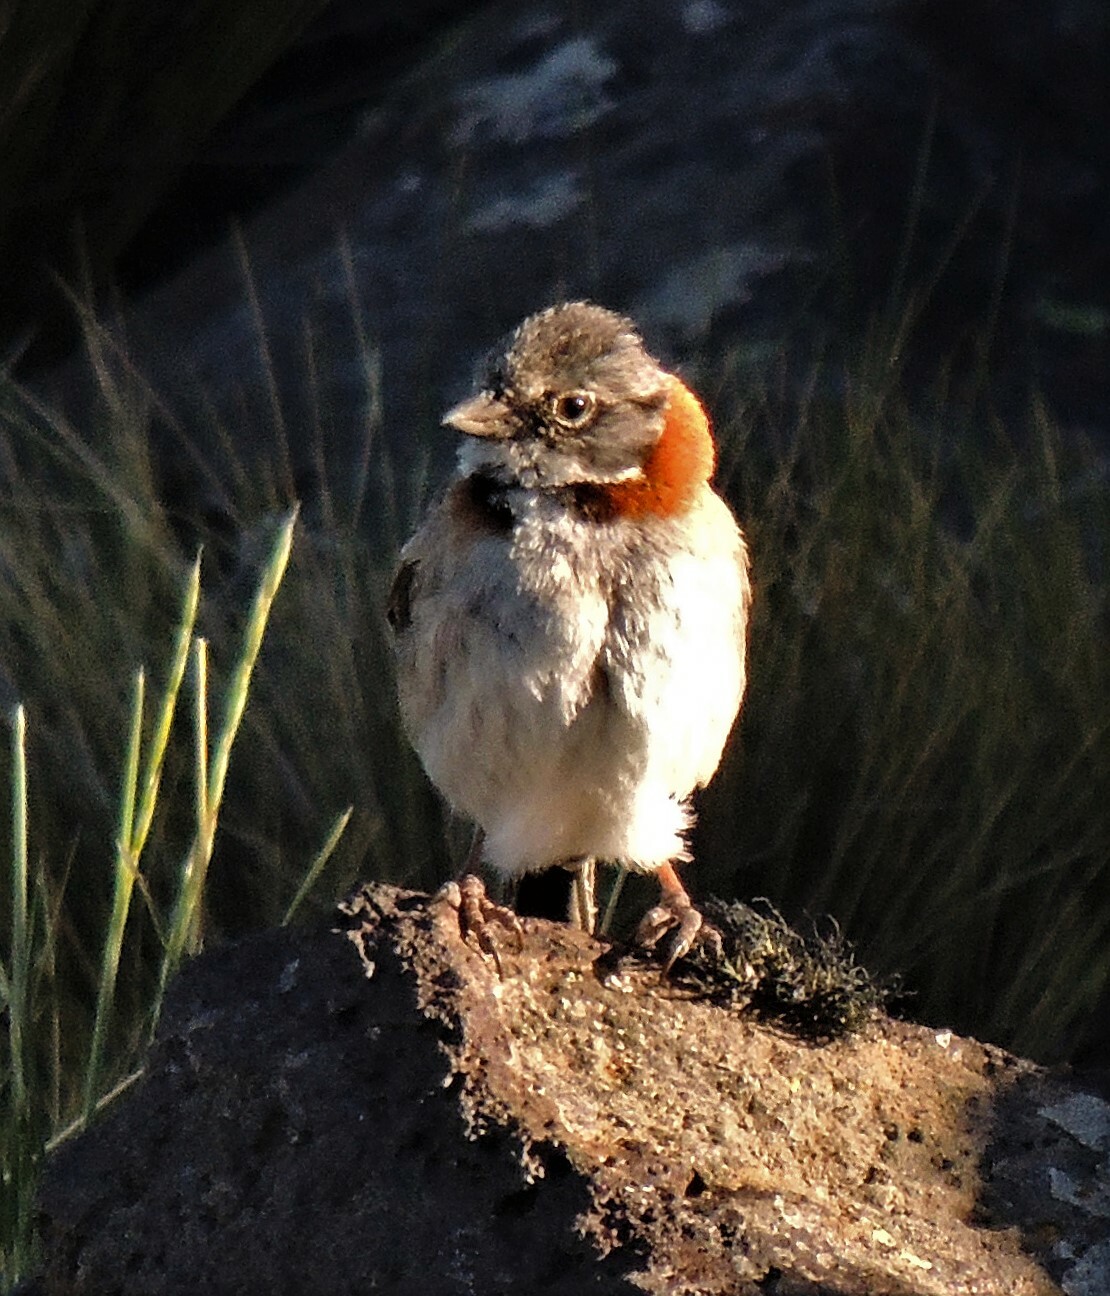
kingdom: Animalia
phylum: Chordata
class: Aves
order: Passeriformes
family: Passerellidae
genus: Zonotrichia
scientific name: Zonotrichia capensis
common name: Rufous-collared sparrow
